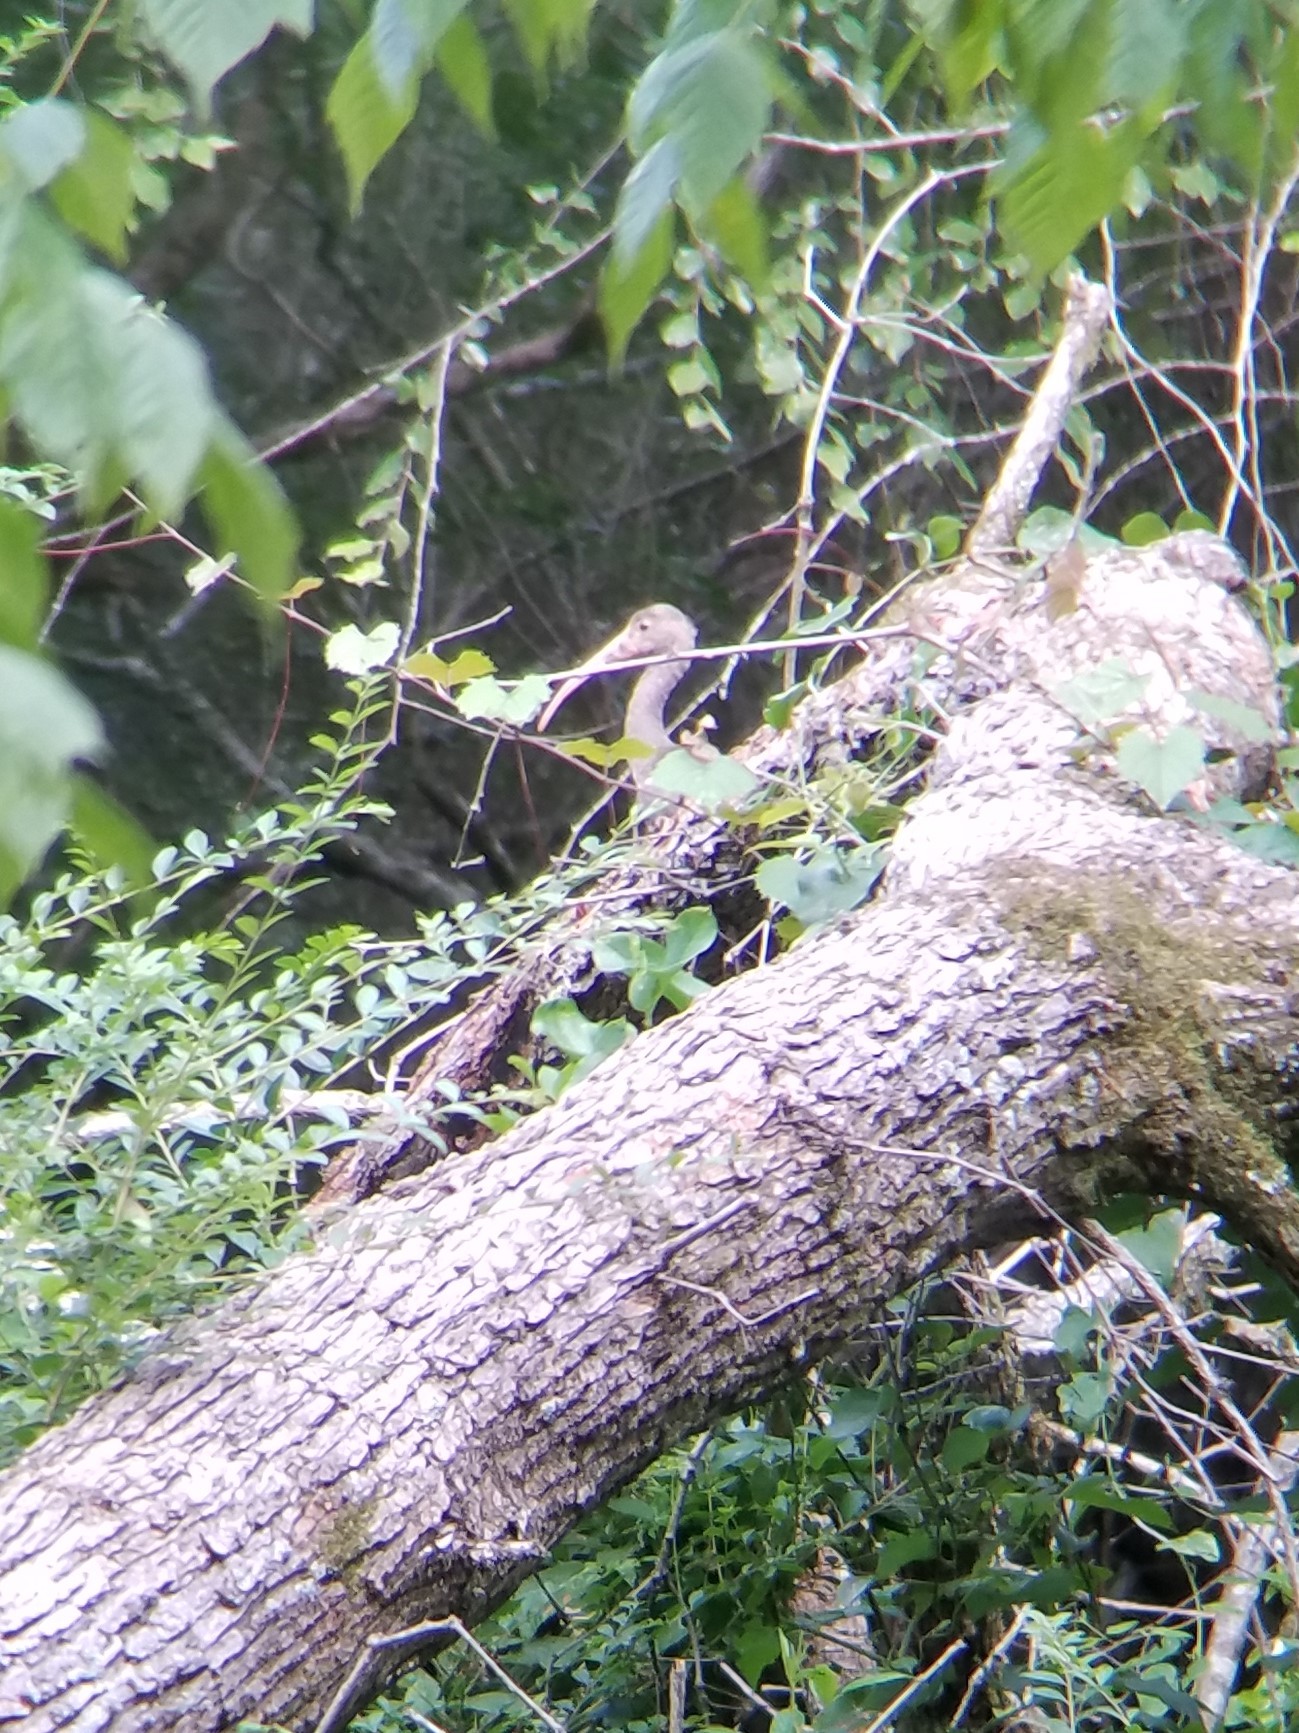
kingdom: Animalia
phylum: Chordata
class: Aves
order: Pelecaniformes
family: Threskiornithidae
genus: Eudocimus
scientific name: Eudocimus albus
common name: White ibis
